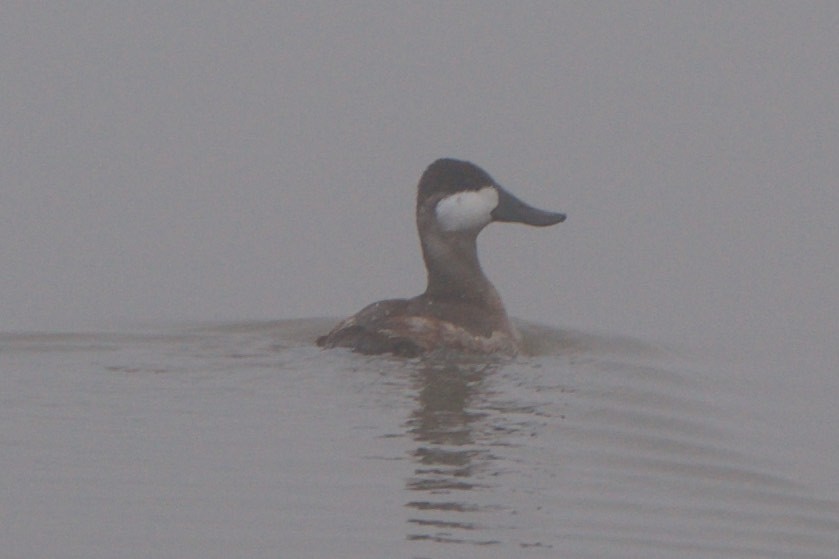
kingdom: Animalia
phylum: Chordata
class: Aves
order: Anseriformes
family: Anatidae
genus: Oxyura
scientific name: Oxyura jamaicensis
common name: Ruddy duck
